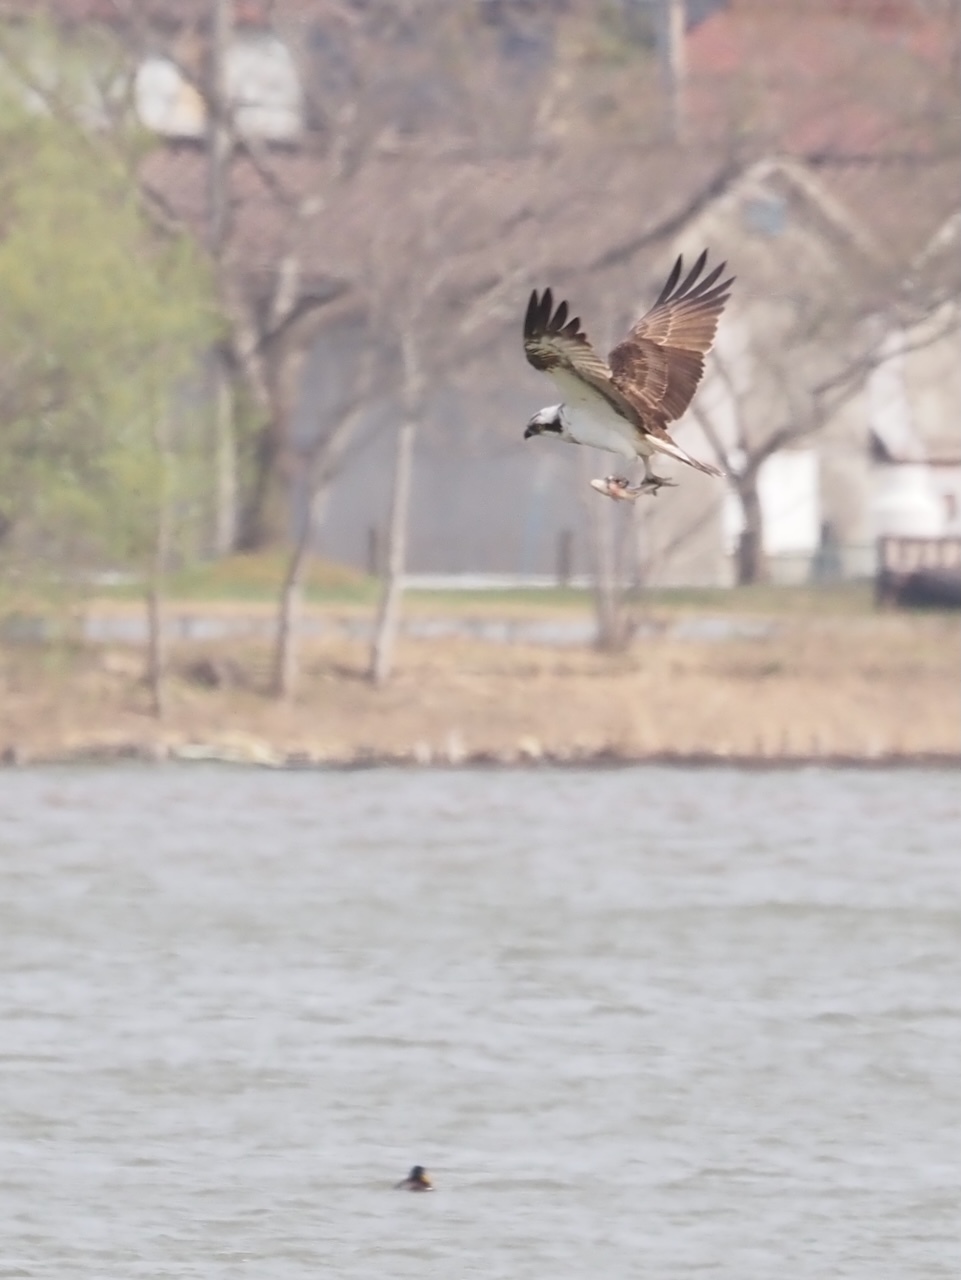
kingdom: Animalia
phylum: Chordata
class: Aves
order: Accipitriformes
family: Pandionidae
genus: Pandion
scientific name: Pandion haliaetus
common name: Osprey
